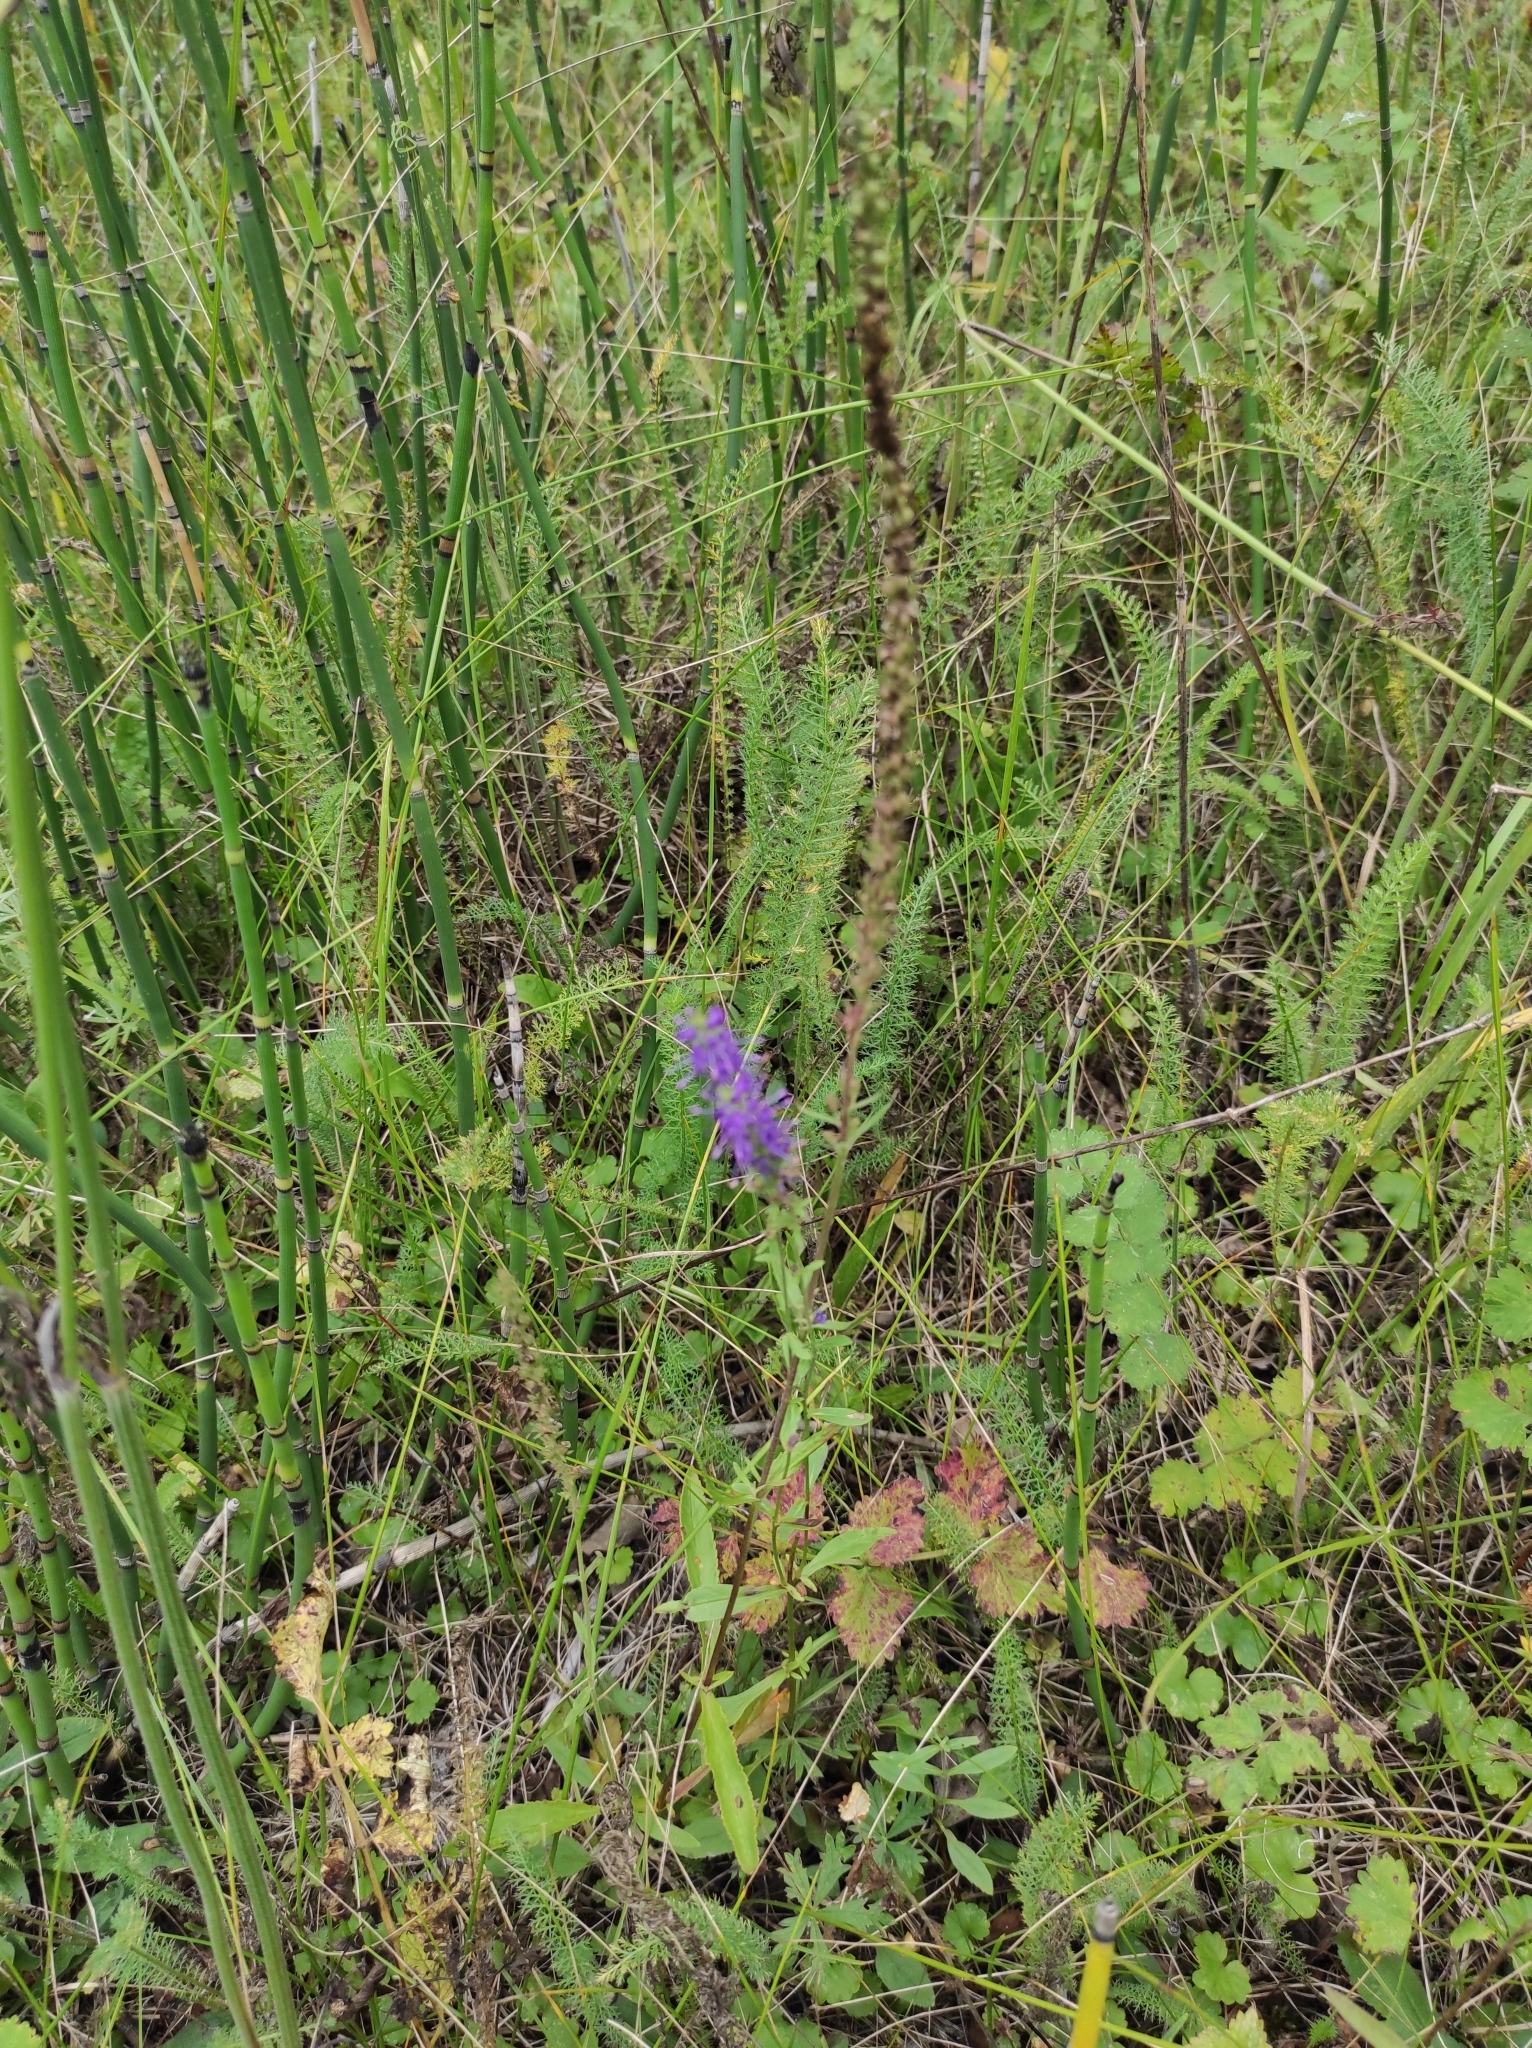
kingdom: Plantae
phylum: Tracheophyta
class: Magnoliopsida
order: Lamiales
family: Plantaginaceae
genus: Veronica
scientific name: Veronica spicata
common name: Spiked speedwell
